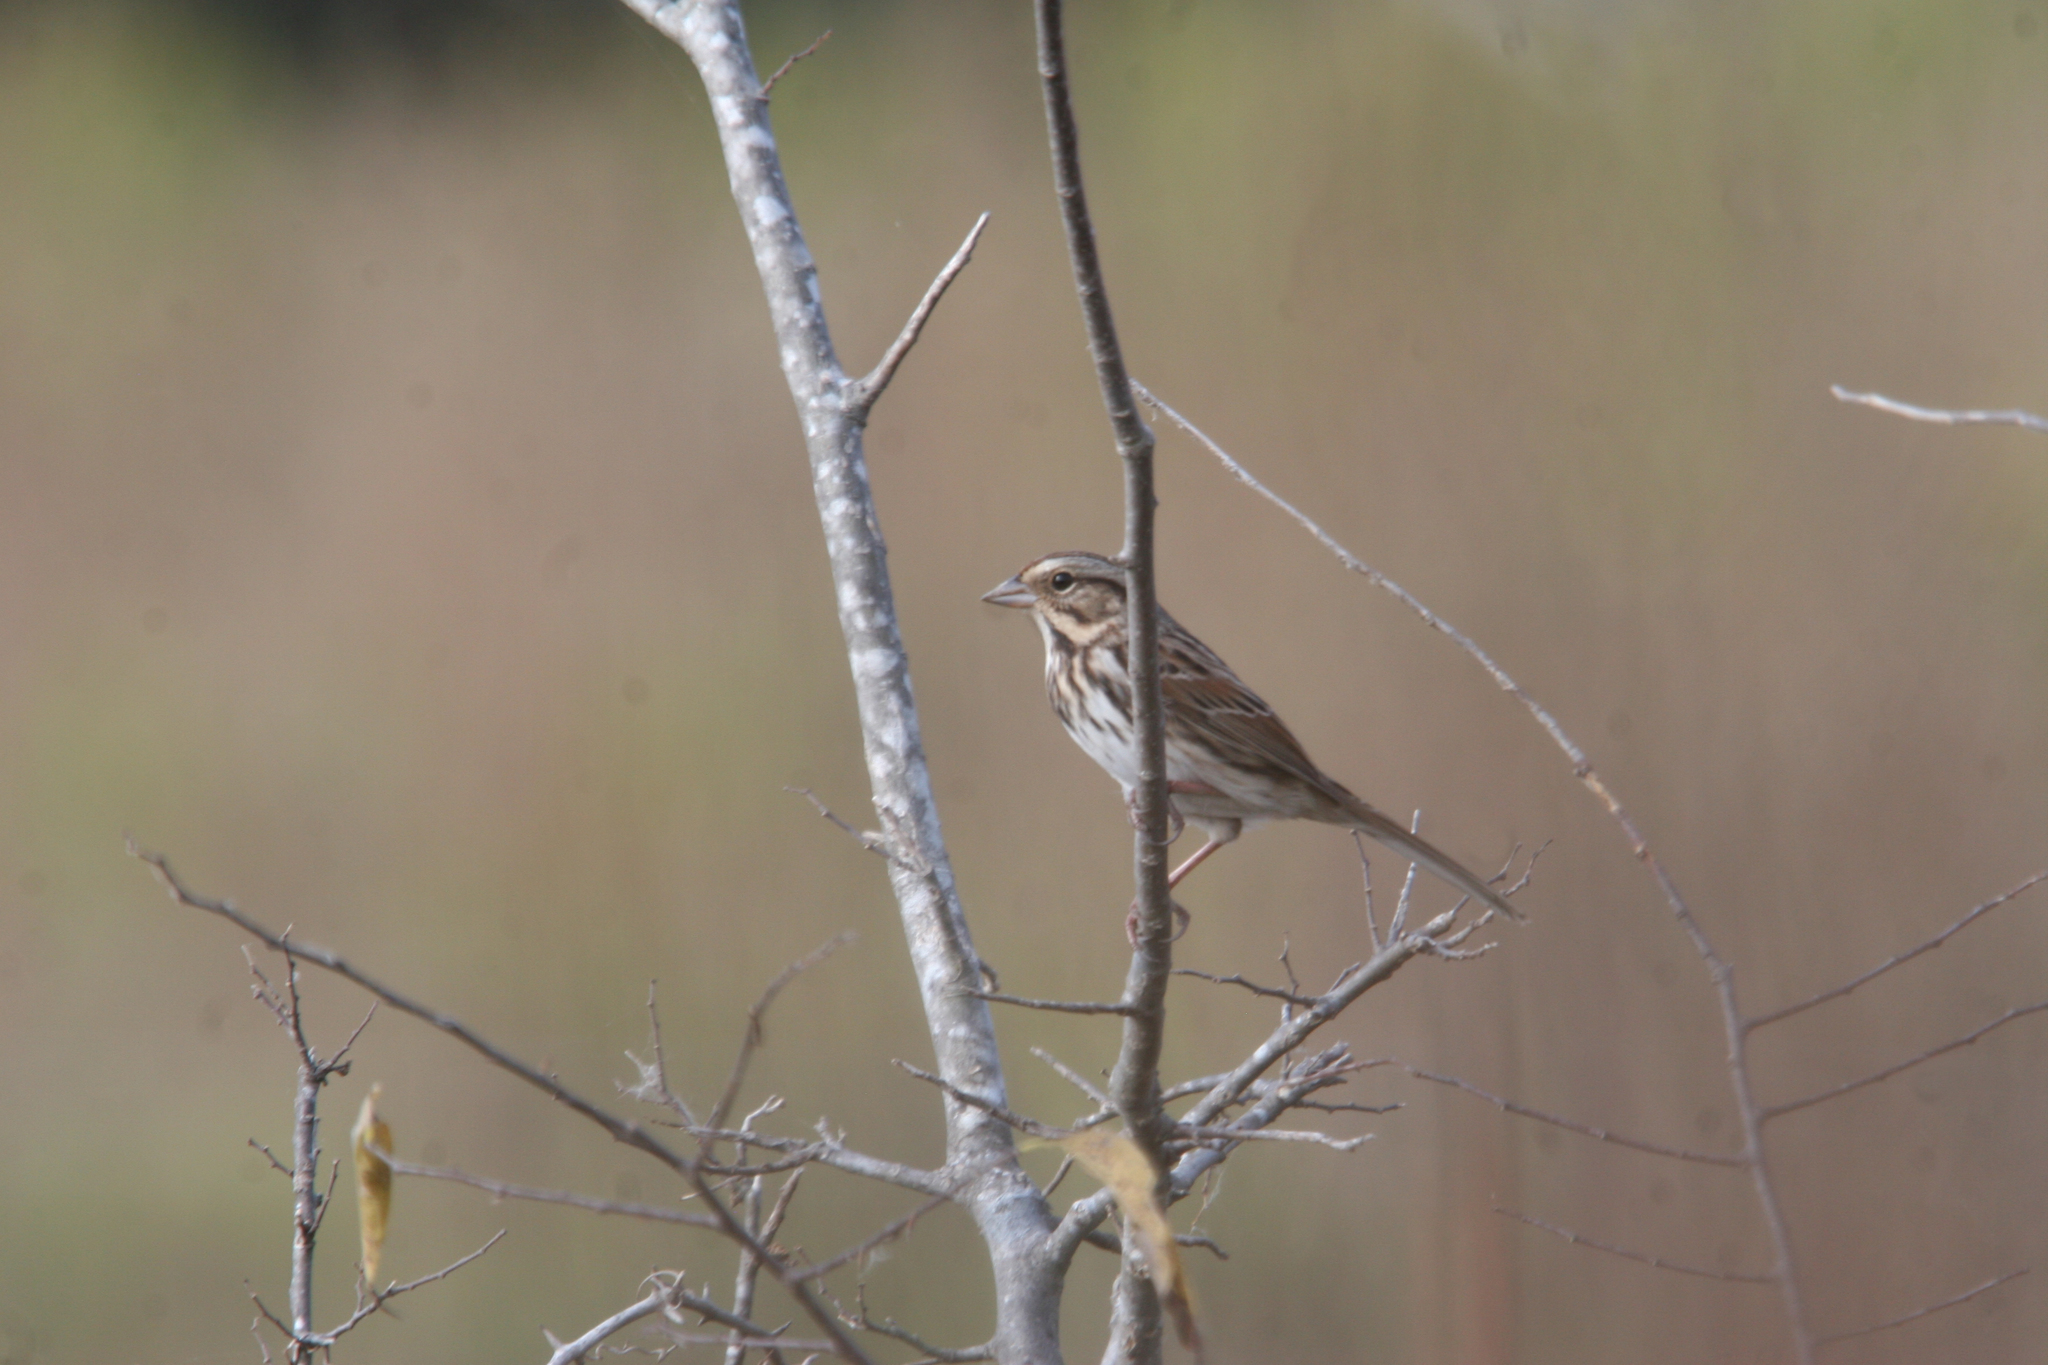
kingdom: Animalia
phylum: Chordata
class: Aves
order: Passeriformes
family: Passerellidae
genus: Melospiza
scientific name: Melospiza melodia
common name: Song sparrow
